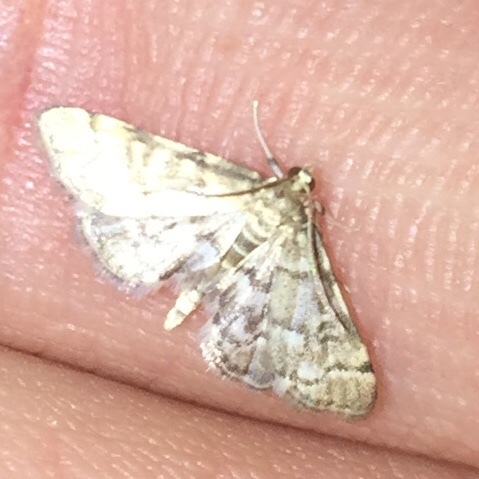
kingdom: Animalia
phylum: Arthropoda
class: Insecta
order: Lepidoptera
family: Crambidae
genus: Anageshna
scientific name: Anageshna primordialis
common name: Yellow-spotted webworm moth
